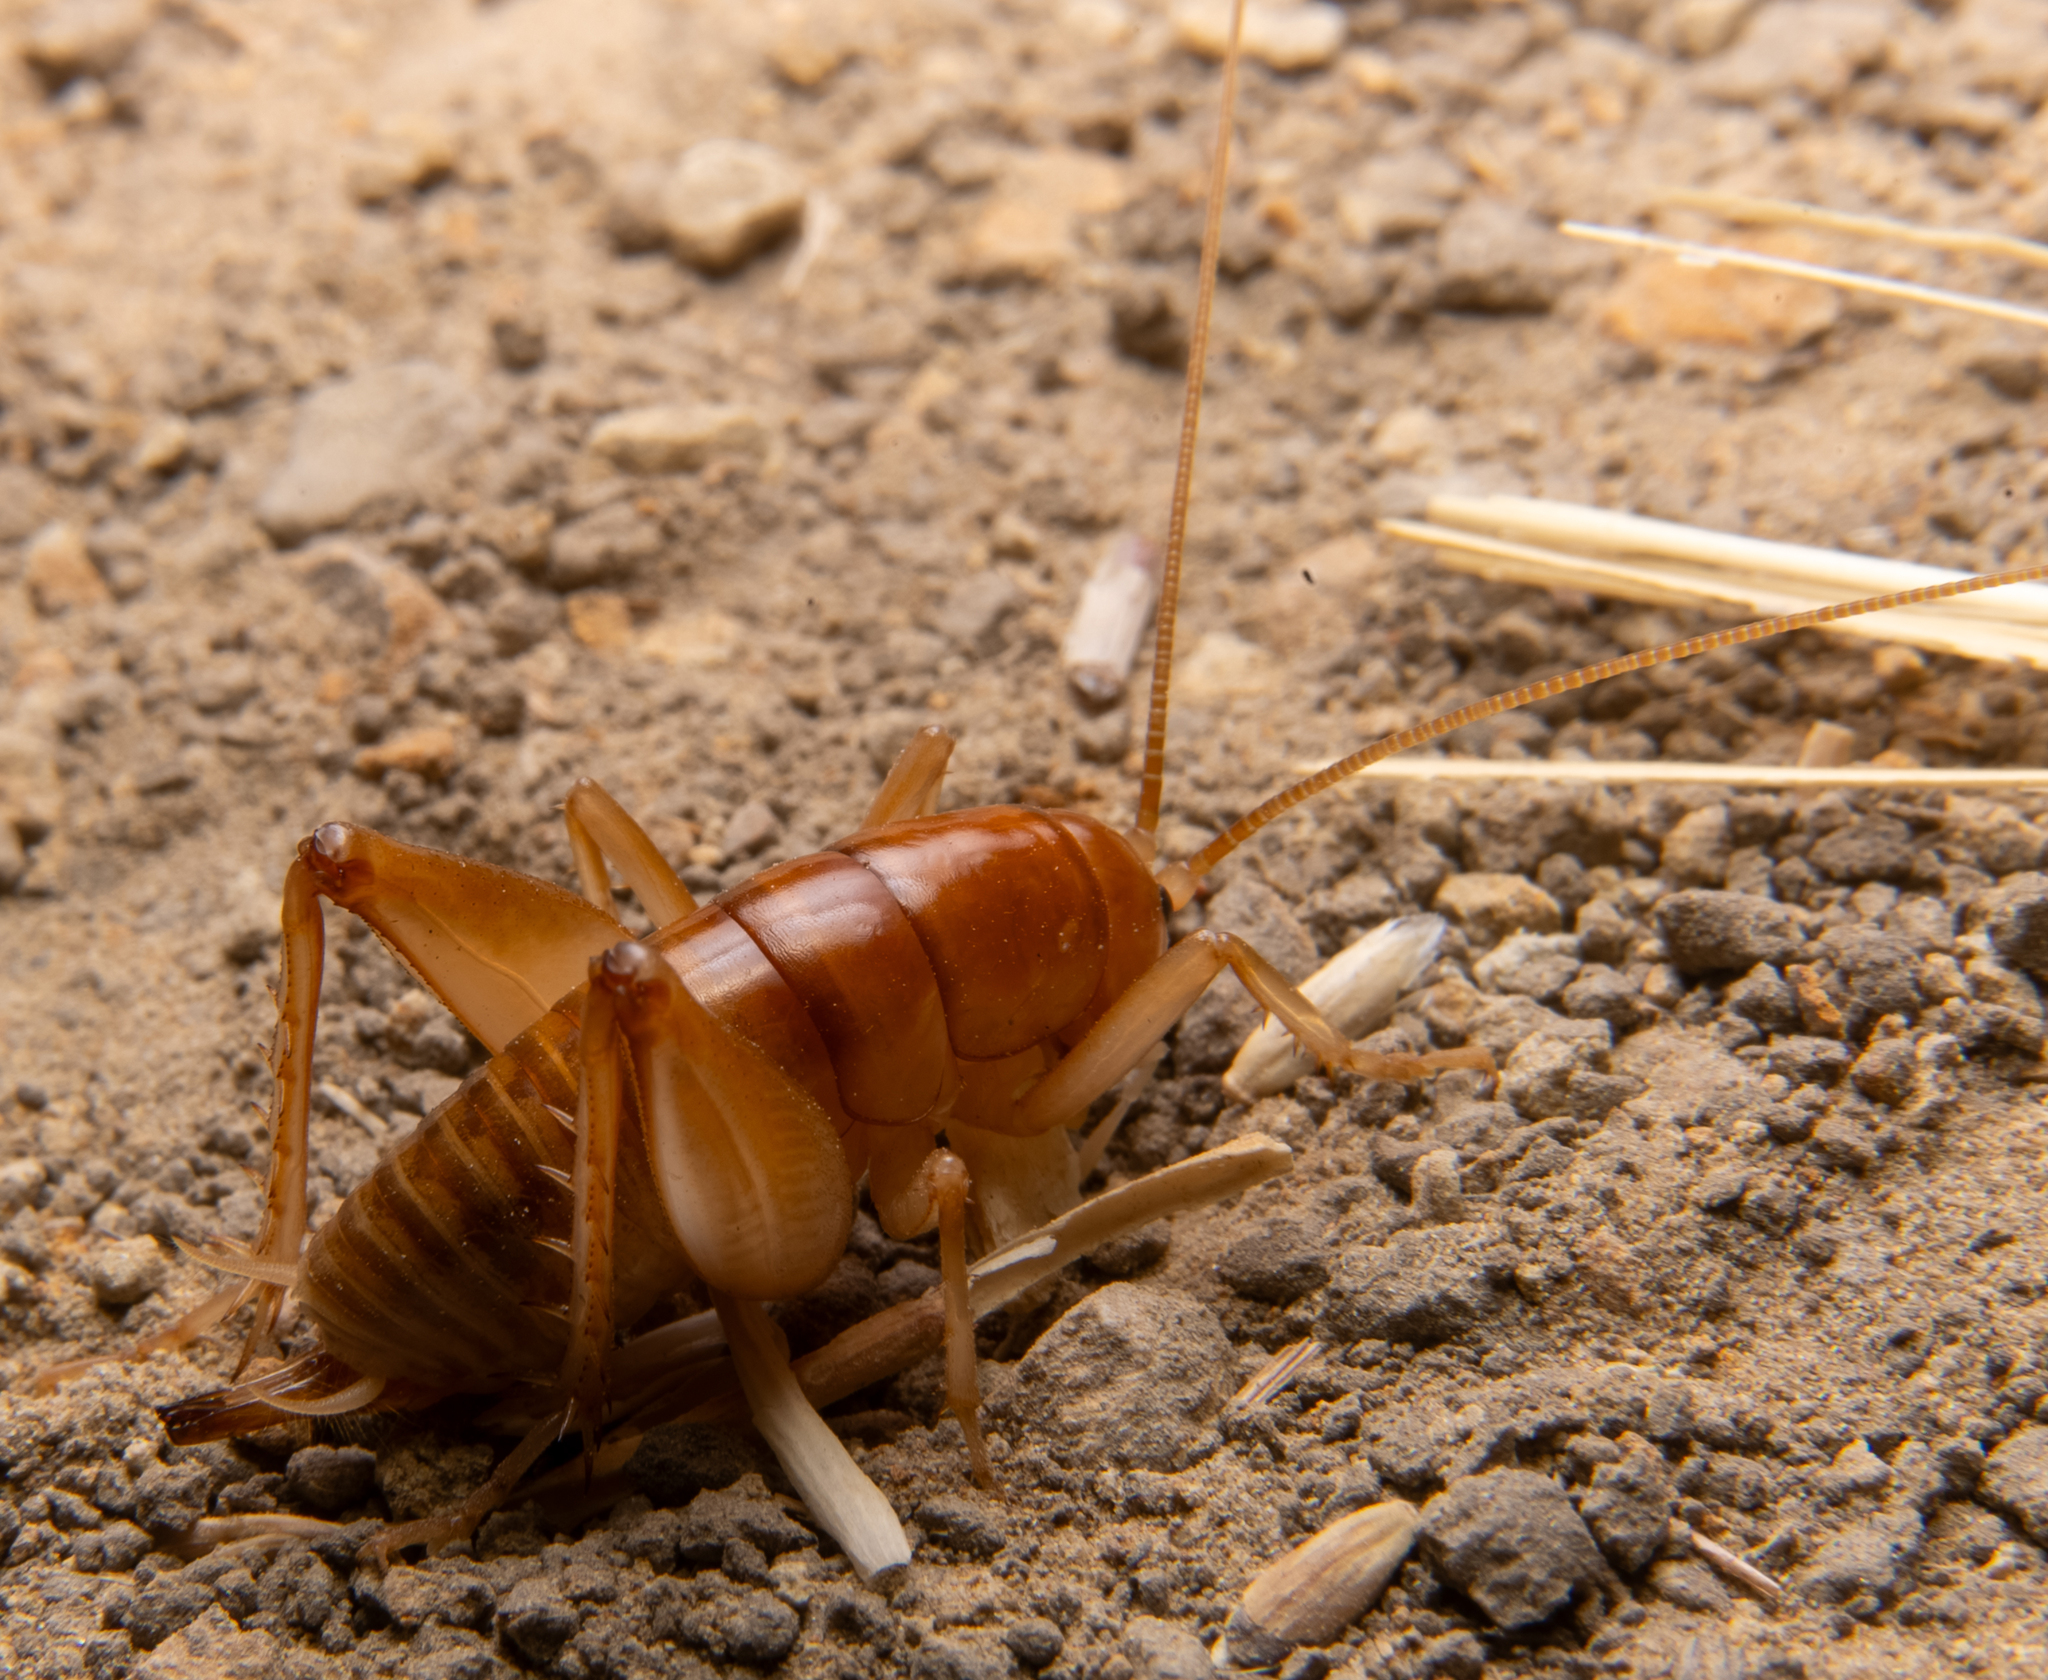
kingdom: Animalia
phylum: Arthropoda
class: Insecta
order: Orthoptera
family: Rhaphidophoridae
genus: Ceuthophilus
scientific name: Ceuthophilus californianus
